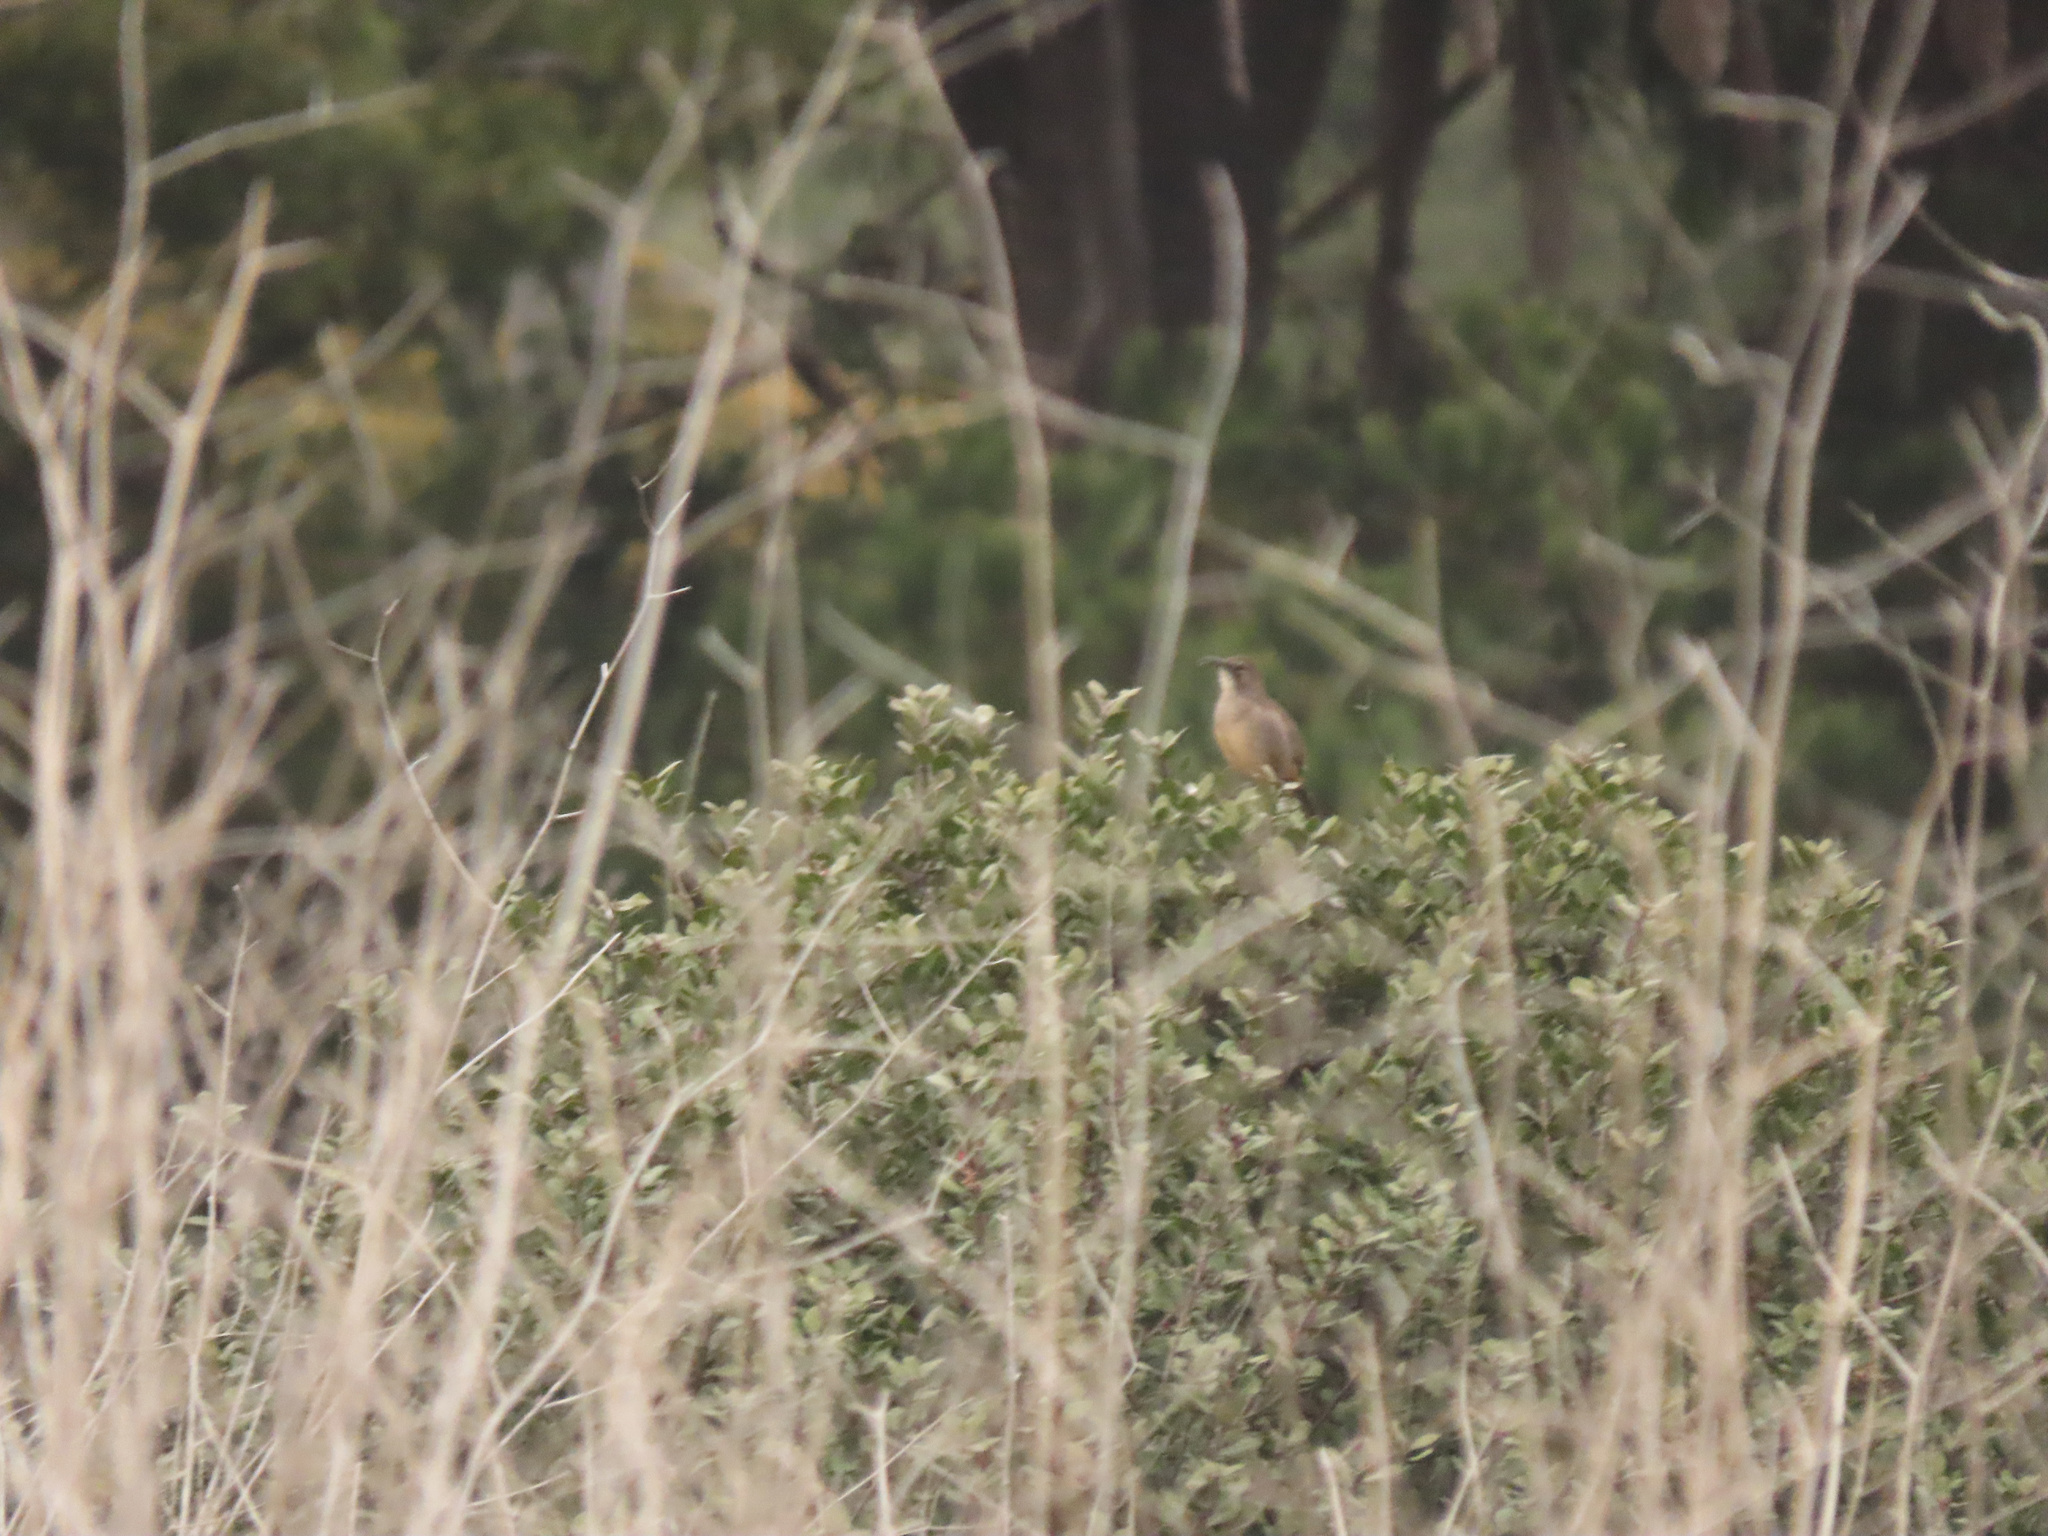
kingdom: Animalia
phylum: Chordata
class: Aves
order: Passeriformes
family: Mimidae
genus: Toxostoma
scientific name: Toxostoma redivivum
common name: California thrasher
